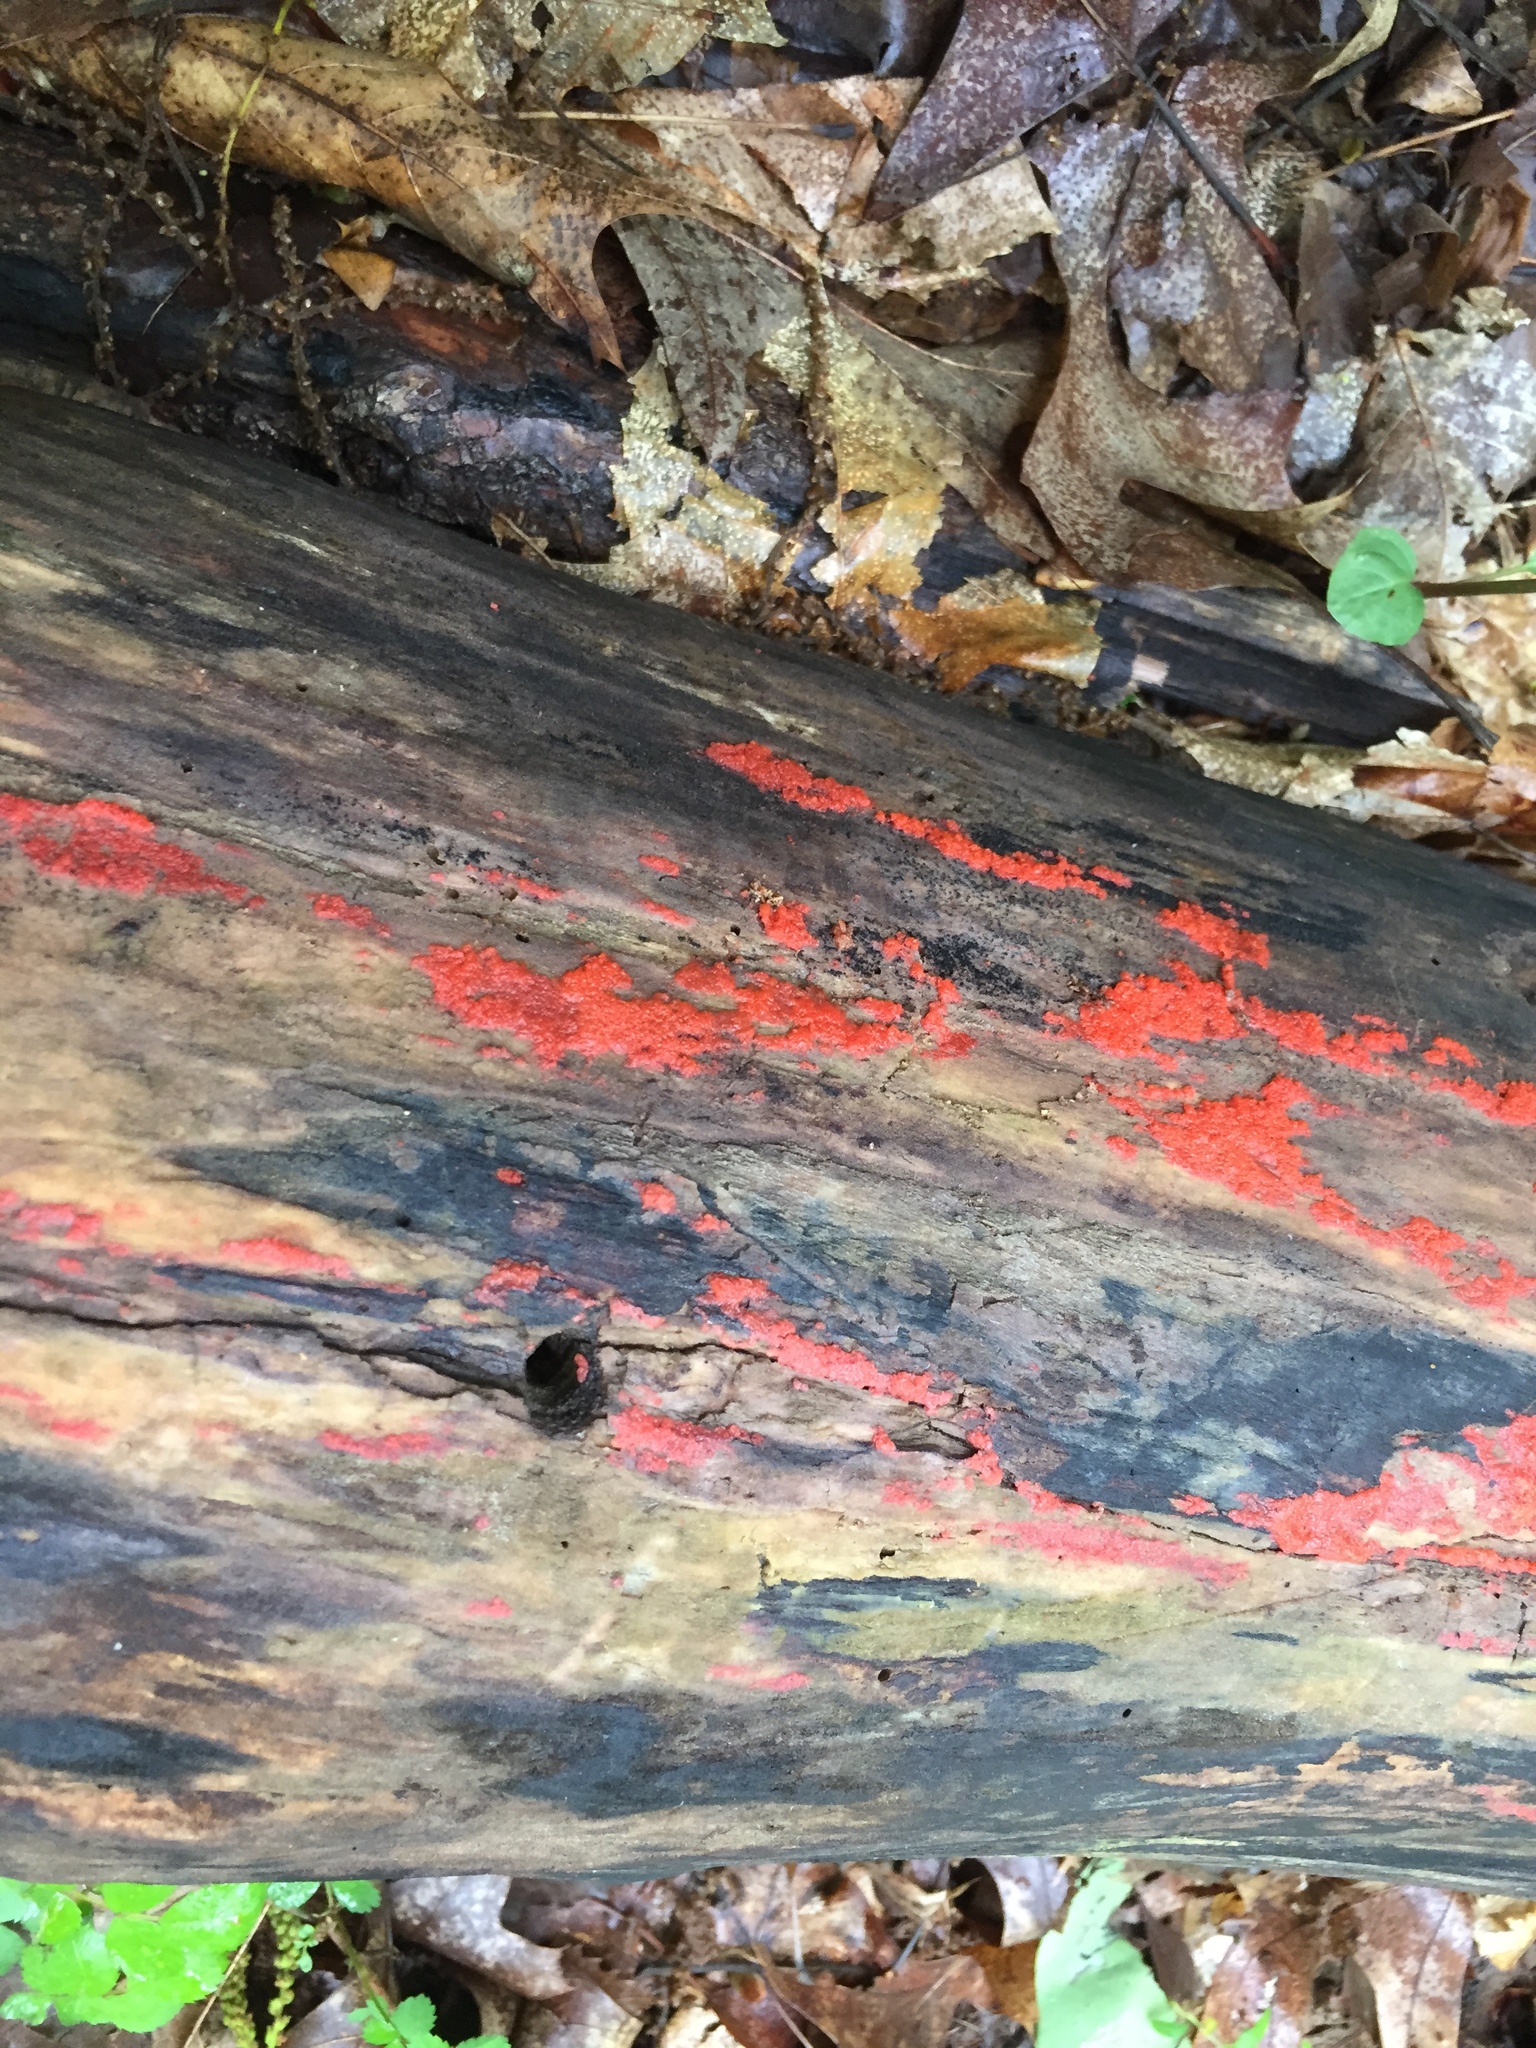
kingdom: Fungi
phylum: Basidiomycota
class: Agaricomycetes
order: Cantharellales
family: Tulasnellaceae
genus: Tulasnella
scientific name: Tulasnella aurantiaca
